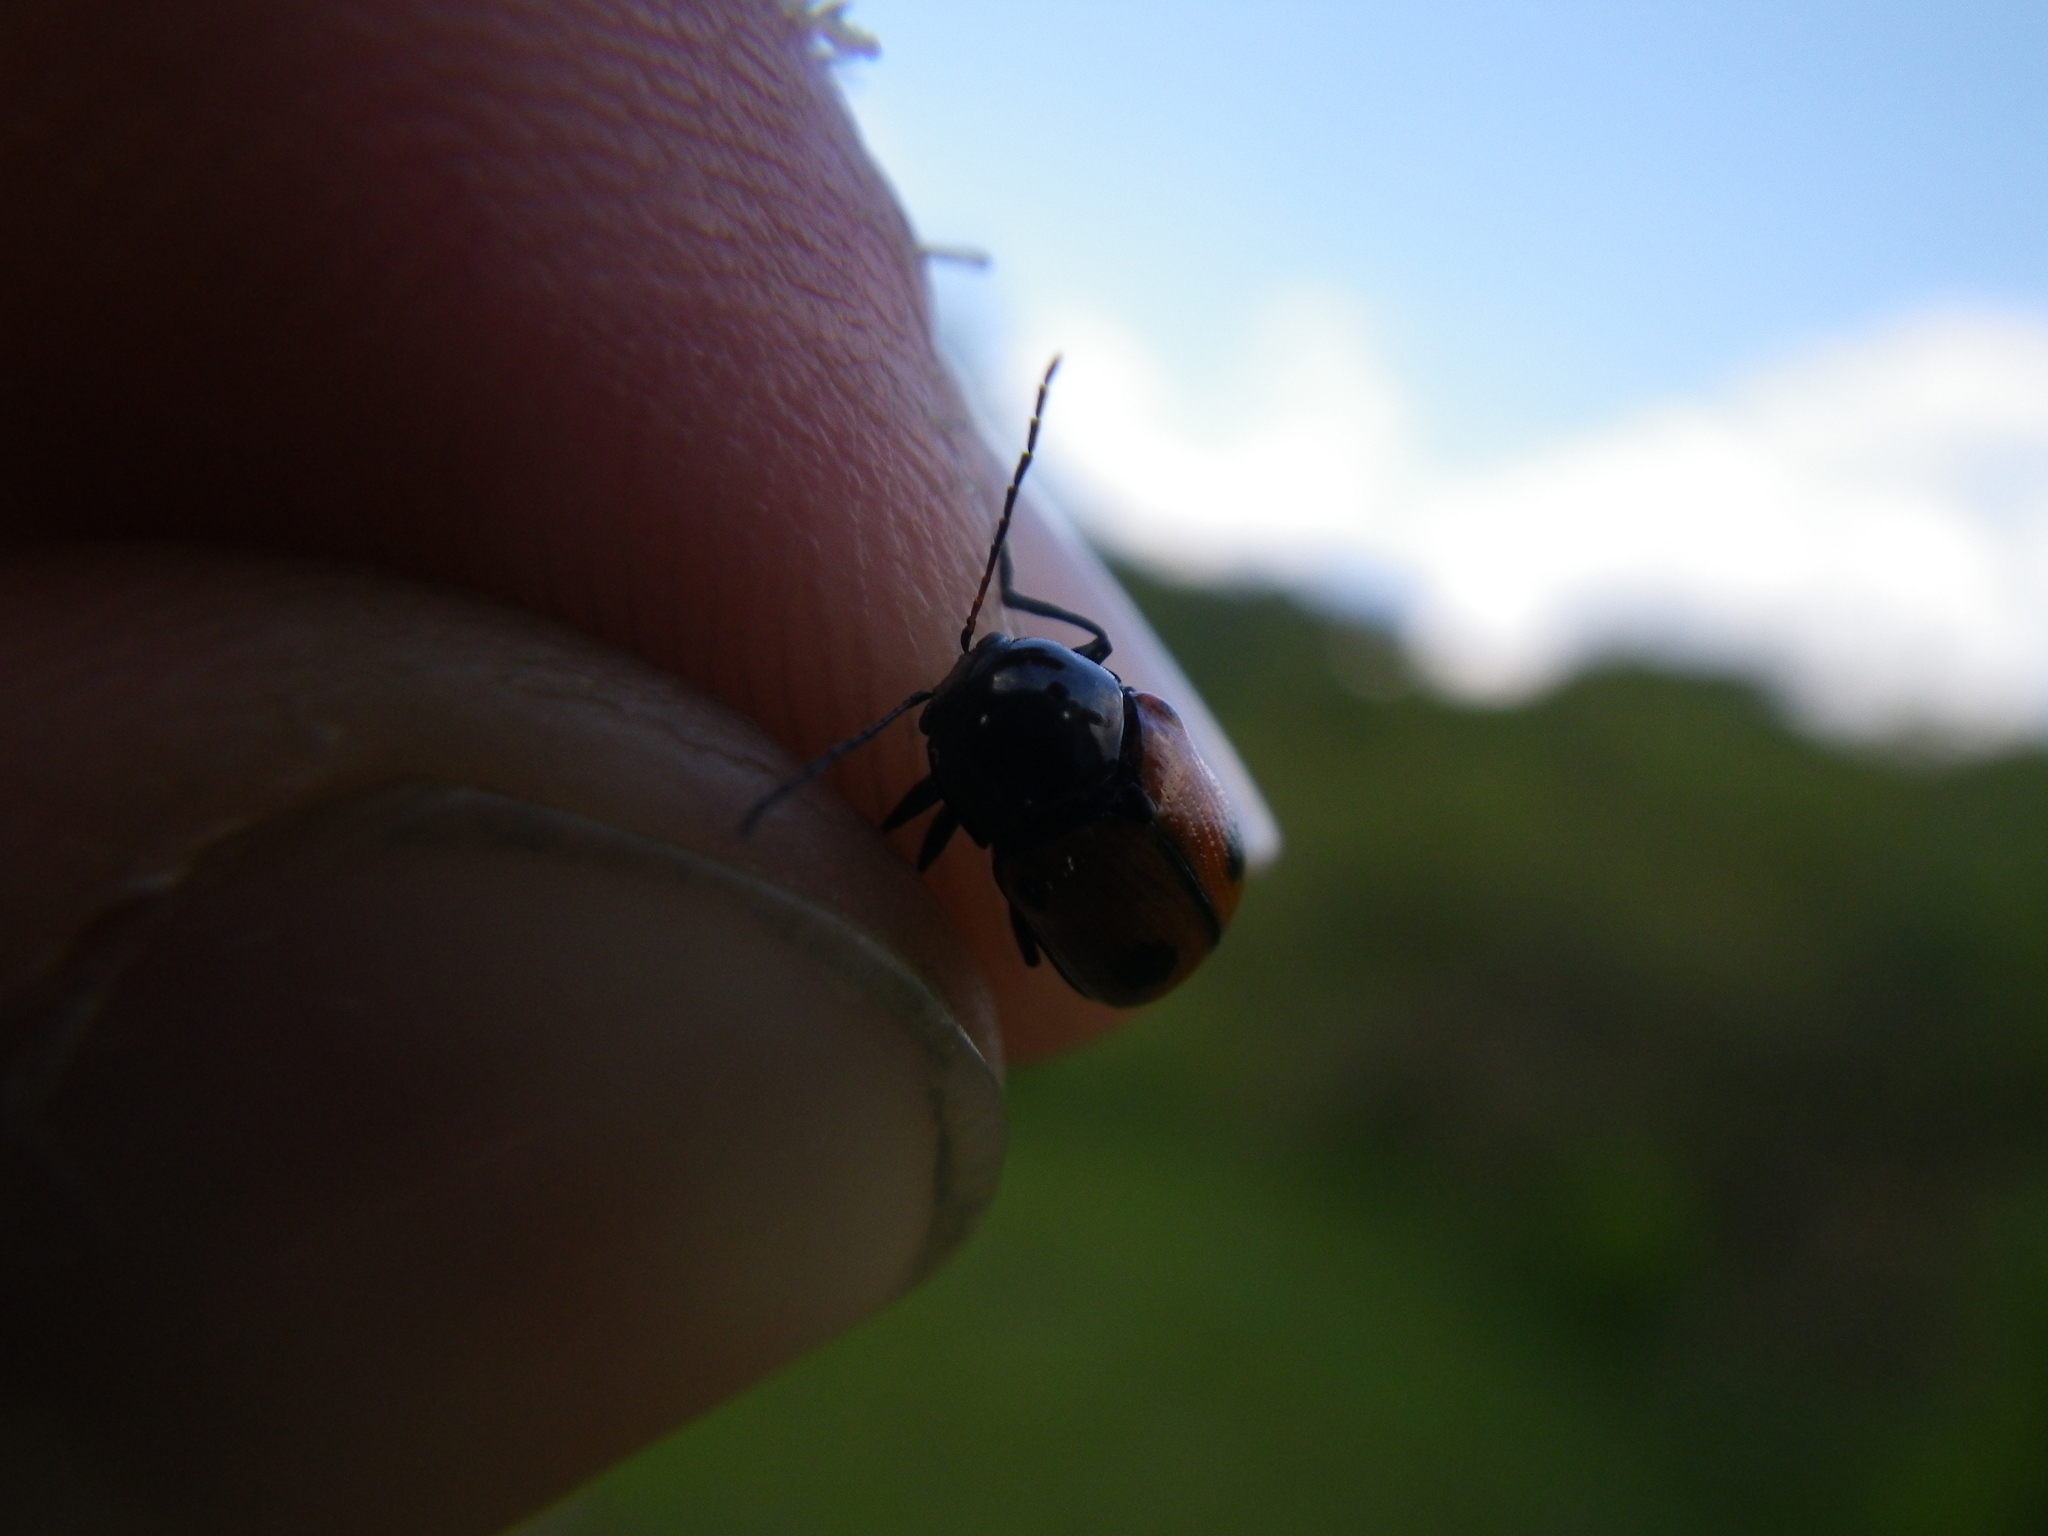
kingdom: Animalia
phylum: Arthropoda
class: Insecta
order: Coleoptera
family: Chrysomelidae
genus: Chiridopsis
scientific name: Chiridopsis bipunctata
